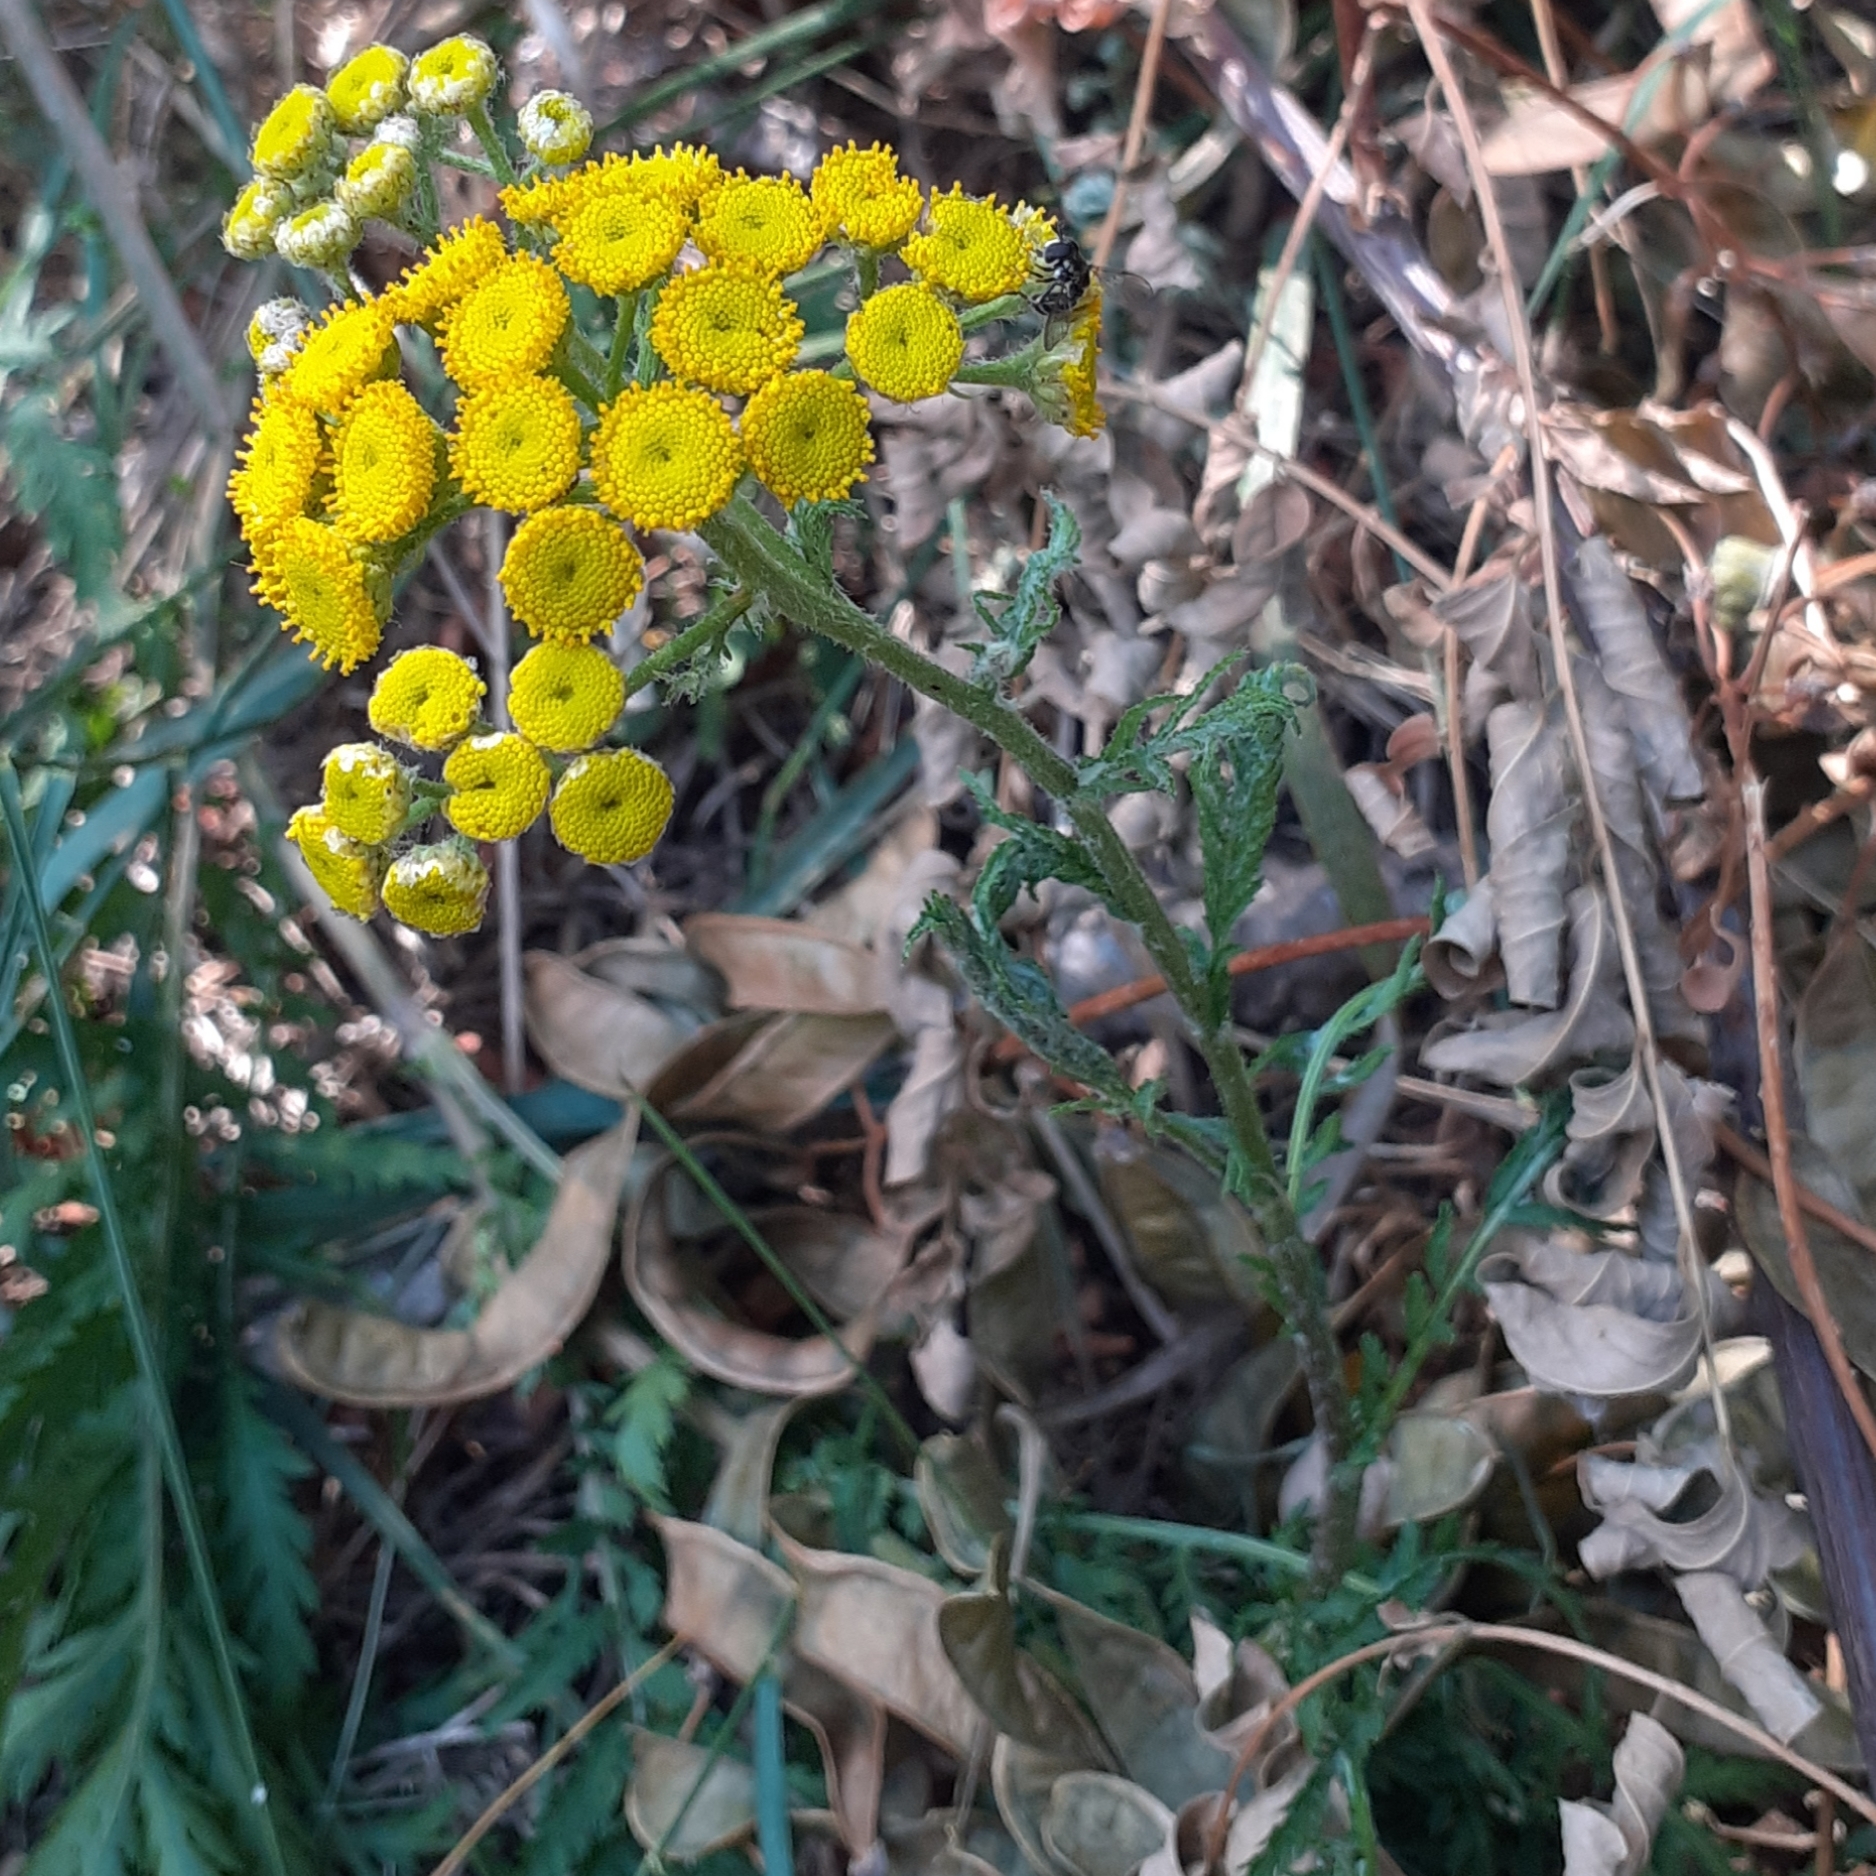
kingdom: Plantae
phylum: Tracheophyta
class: Magnoliopsida
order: Asterales
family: Asteraceae
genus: Tanacetum
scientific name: Tanacetum vulgare
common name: Common tansy
